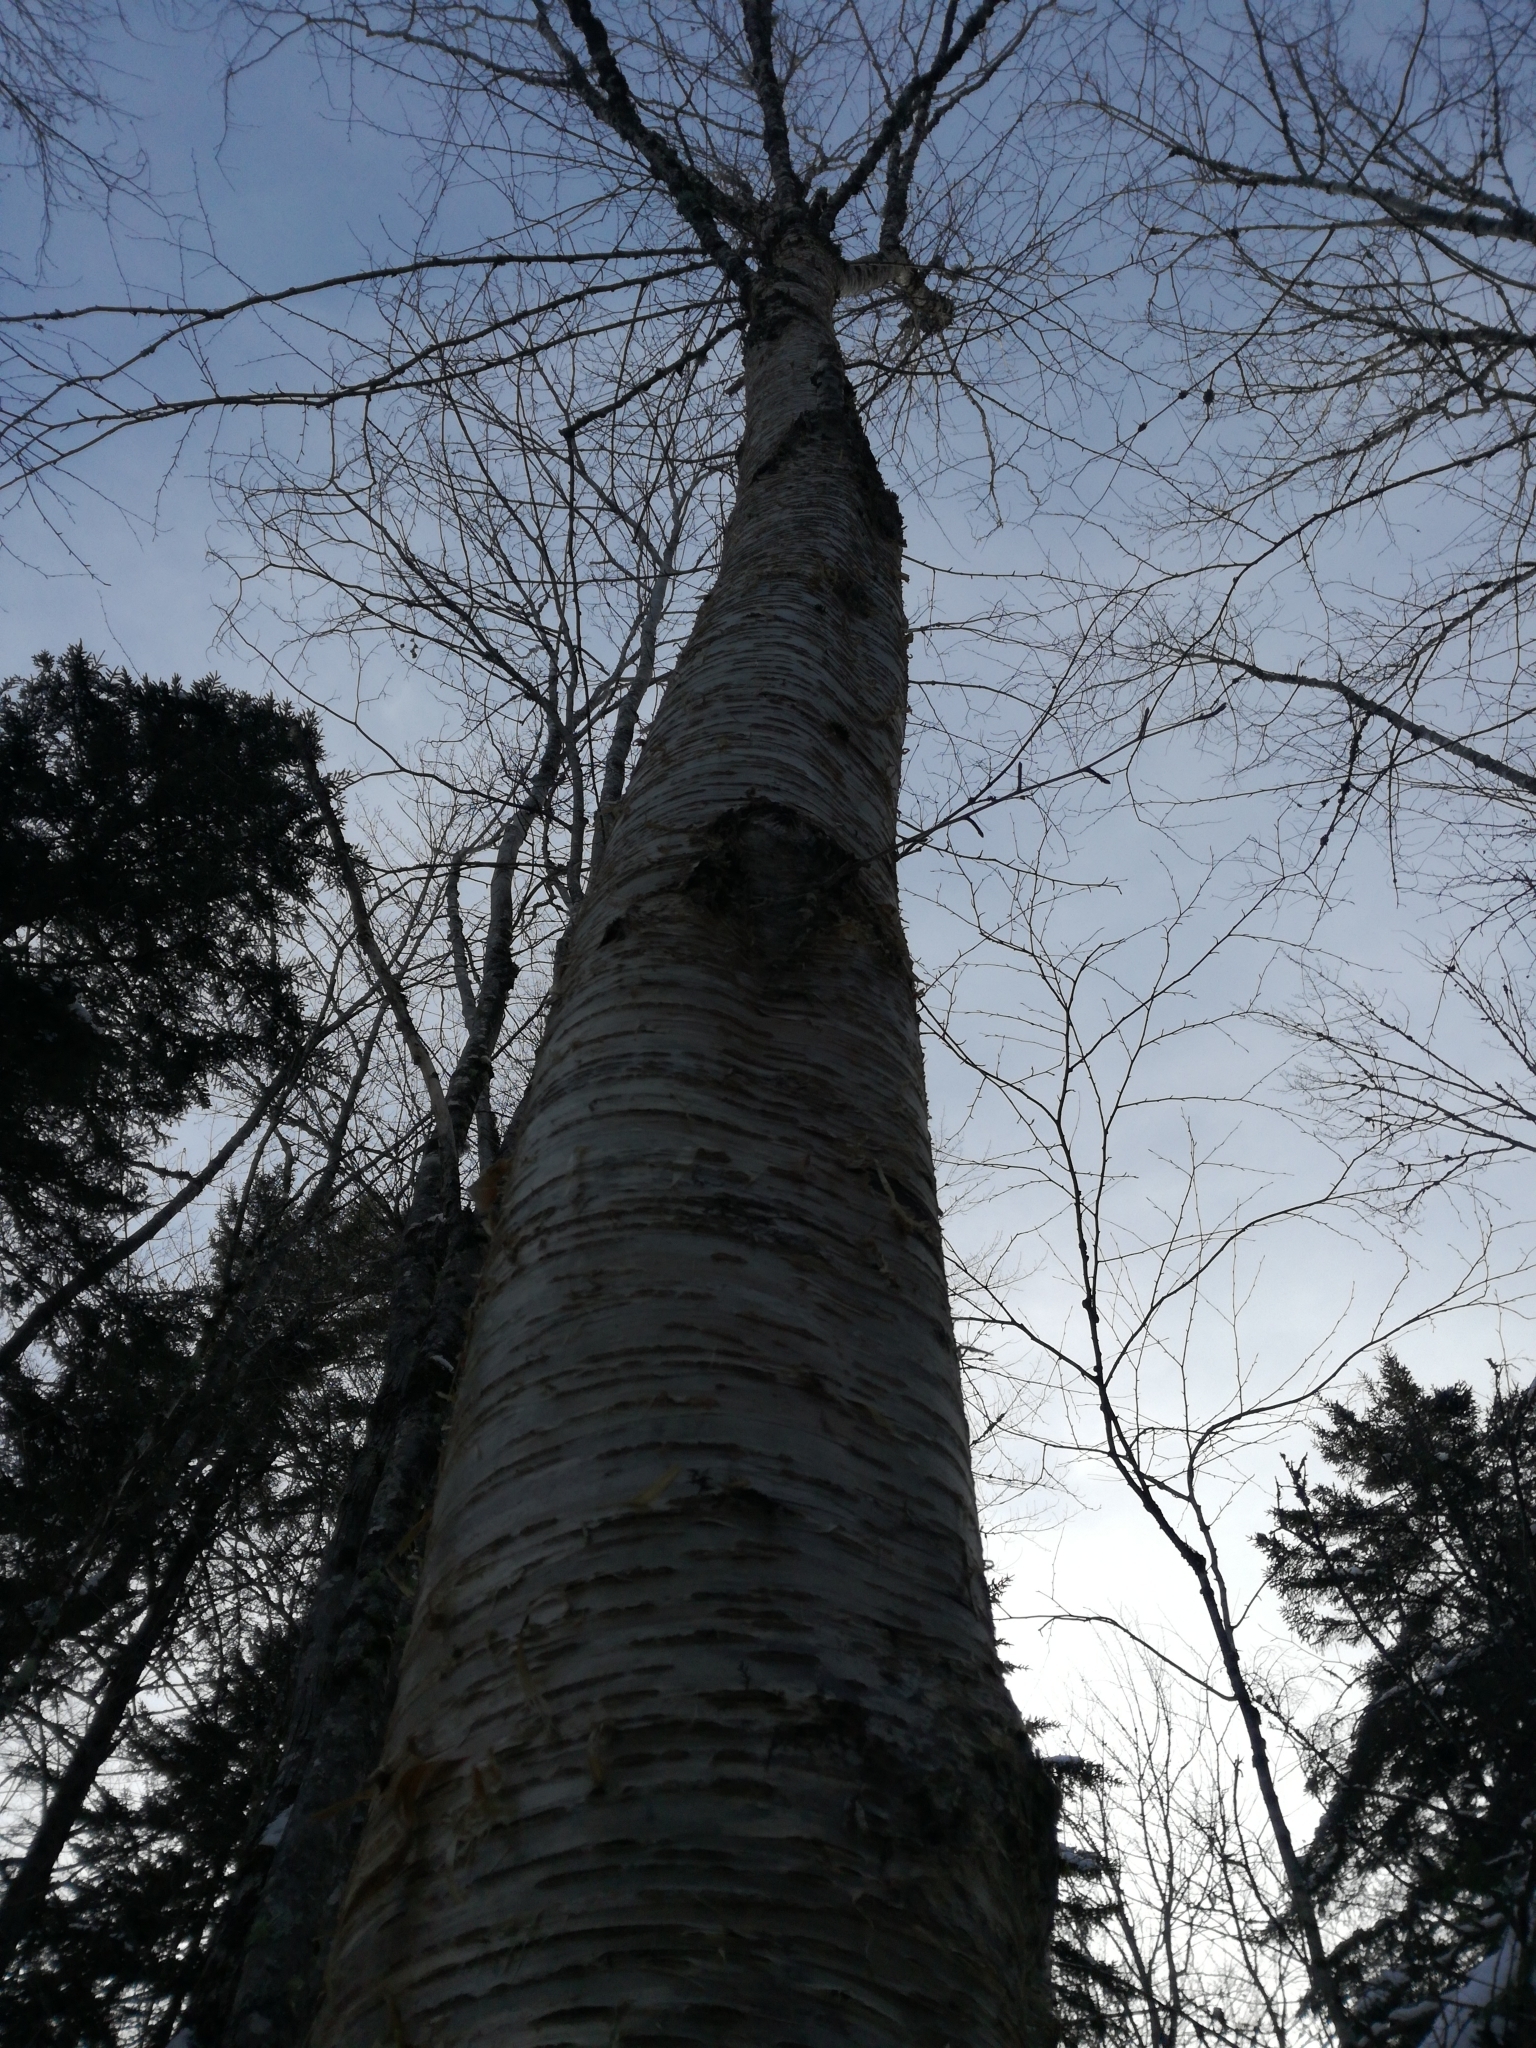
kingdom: Plantae
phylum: Tracheophyta
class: Magnoliopsida
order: Fagales
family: Betulaceae
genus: Betula
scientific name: Betula alleghaniensis
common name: Yellow birch
